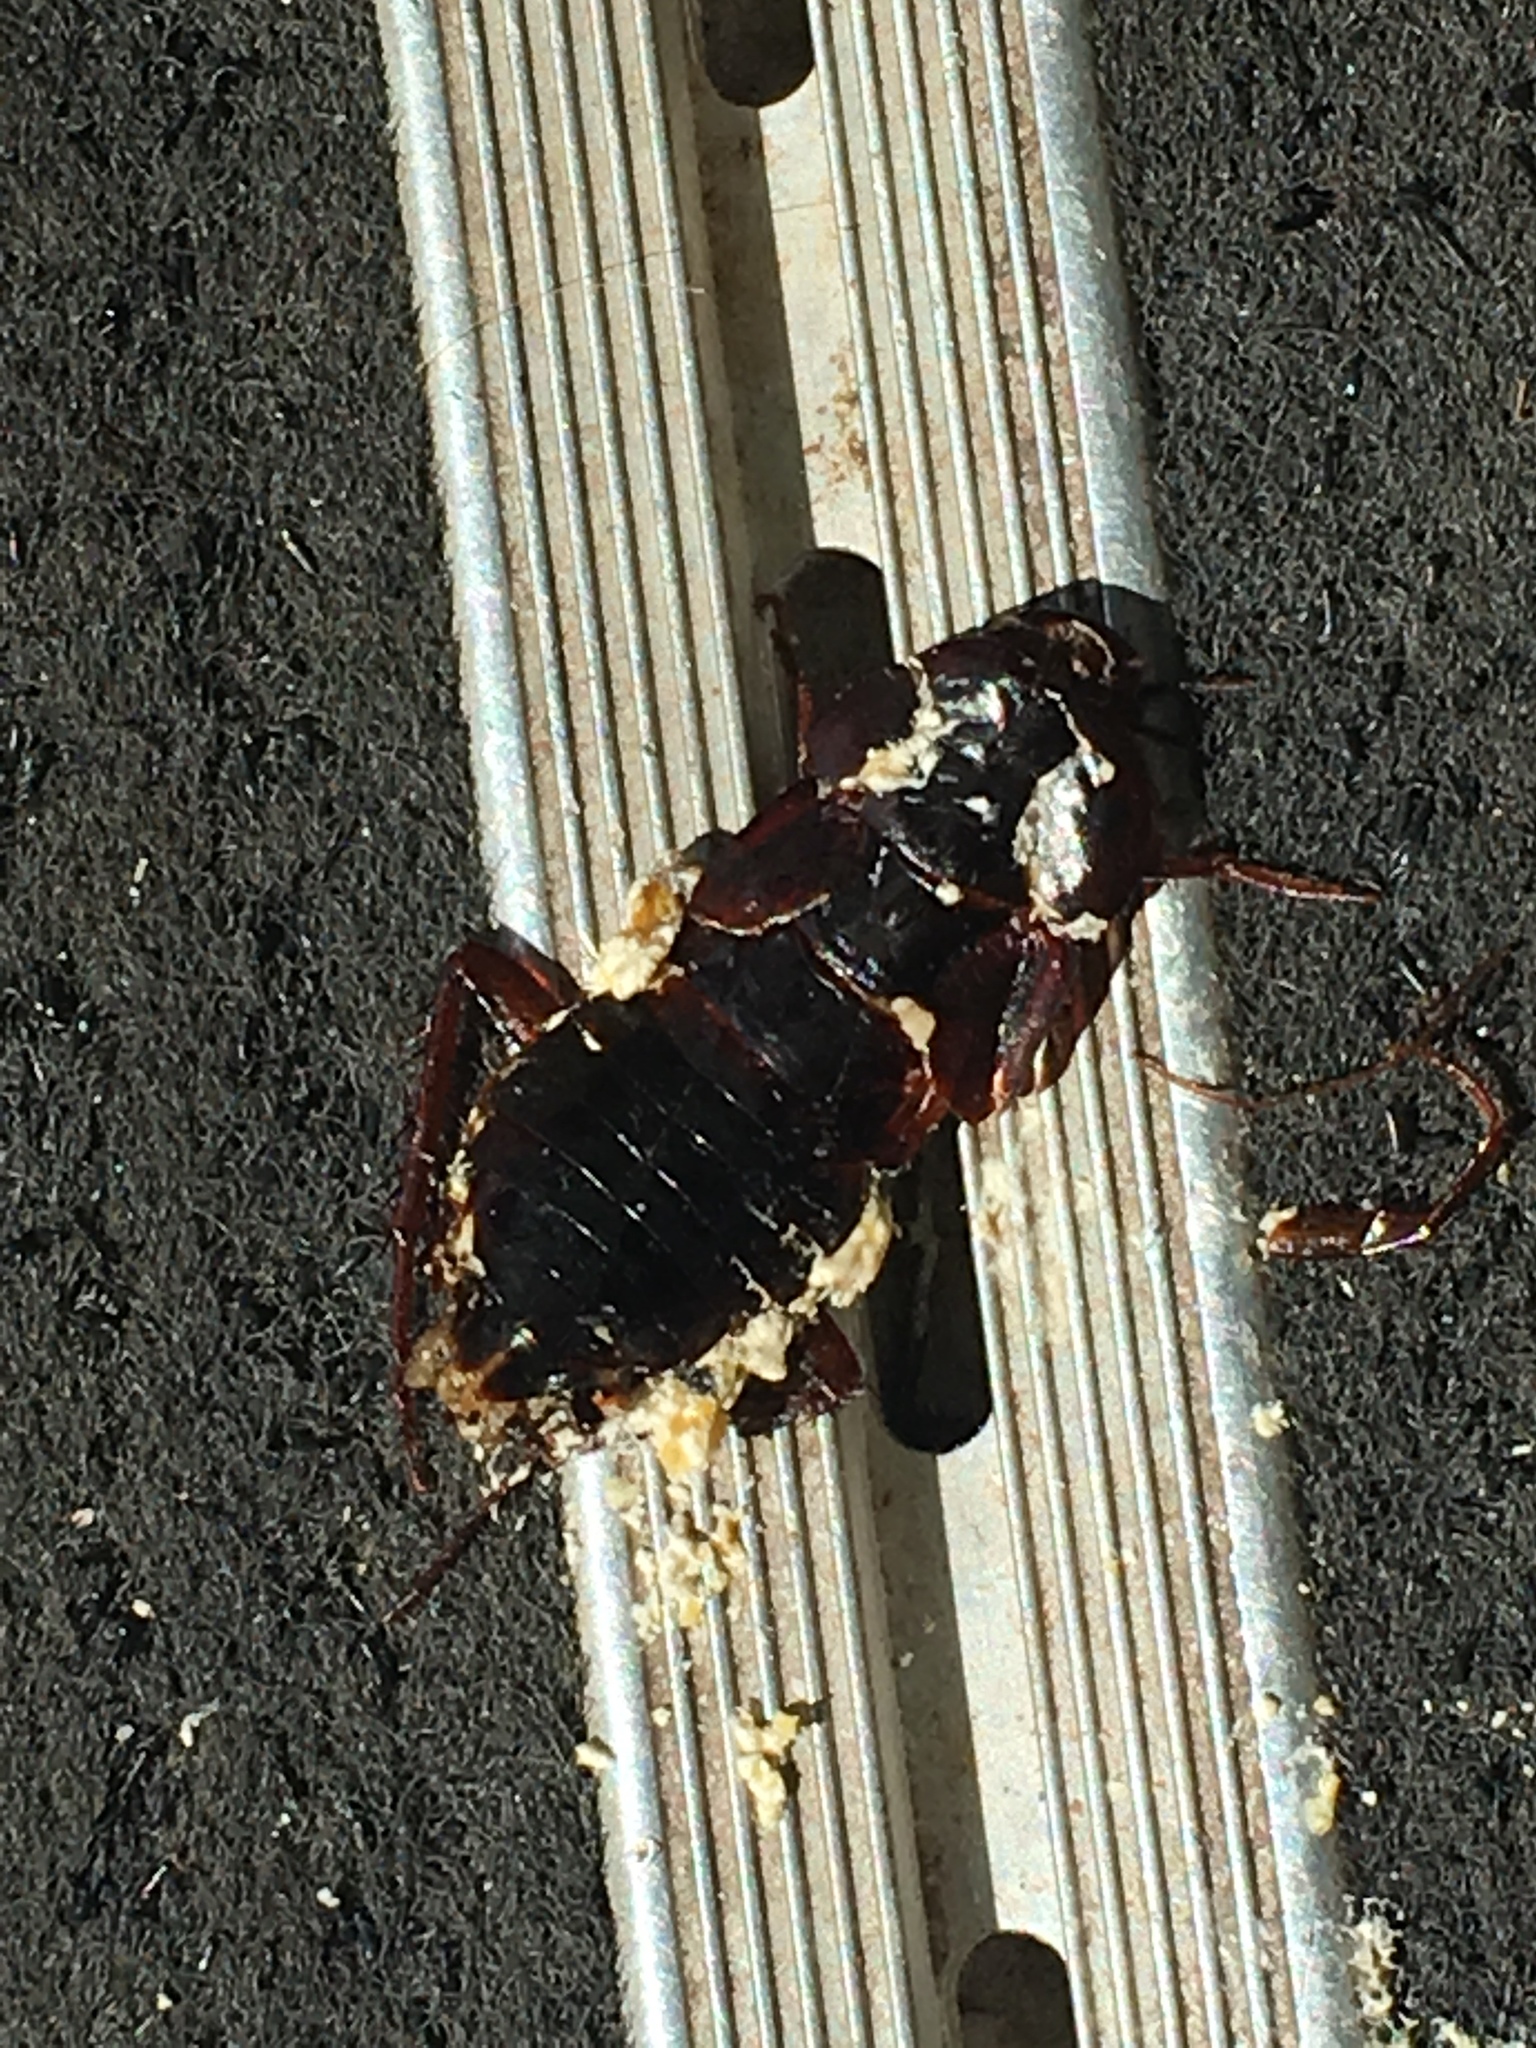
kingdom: Animalia
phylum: Arthropoda
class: Insecta
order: Blattodea
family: Blattidae
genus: Blatta
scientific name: Blatta orientalis
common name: Oriental cockroach
